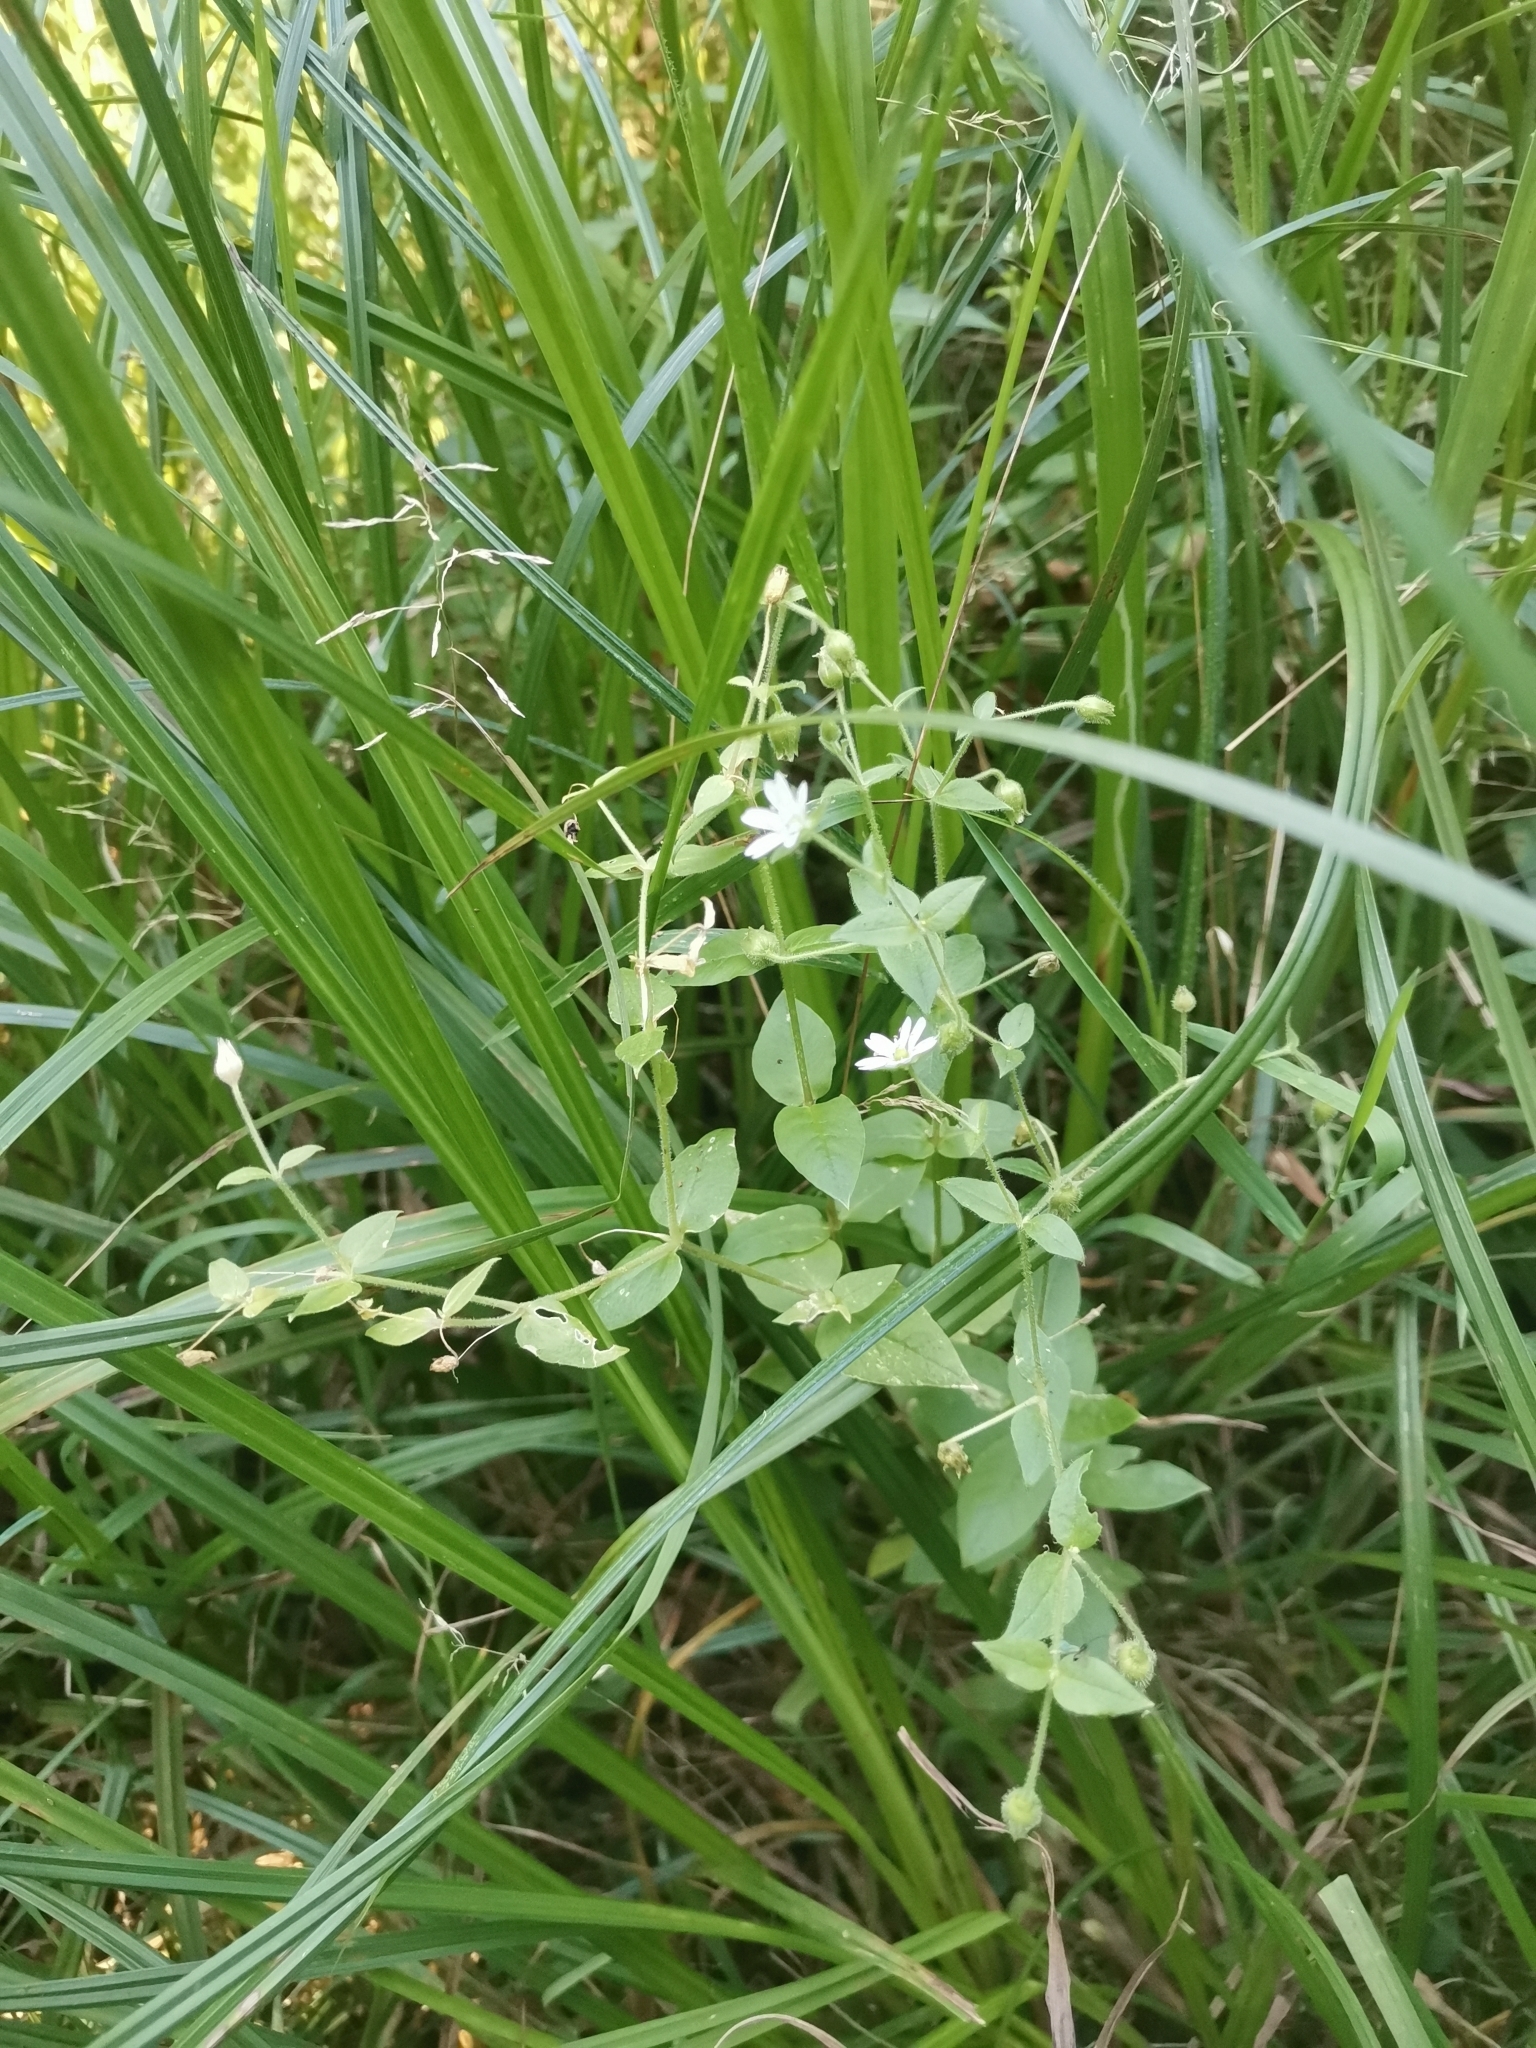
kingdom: Plantae
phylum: Tracheophyta
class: Magnoliopsida
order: Caryophyllales
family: Caryophyllaceae
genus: Stellaria
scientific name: Stellaria aquatica
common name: Water chickweed
